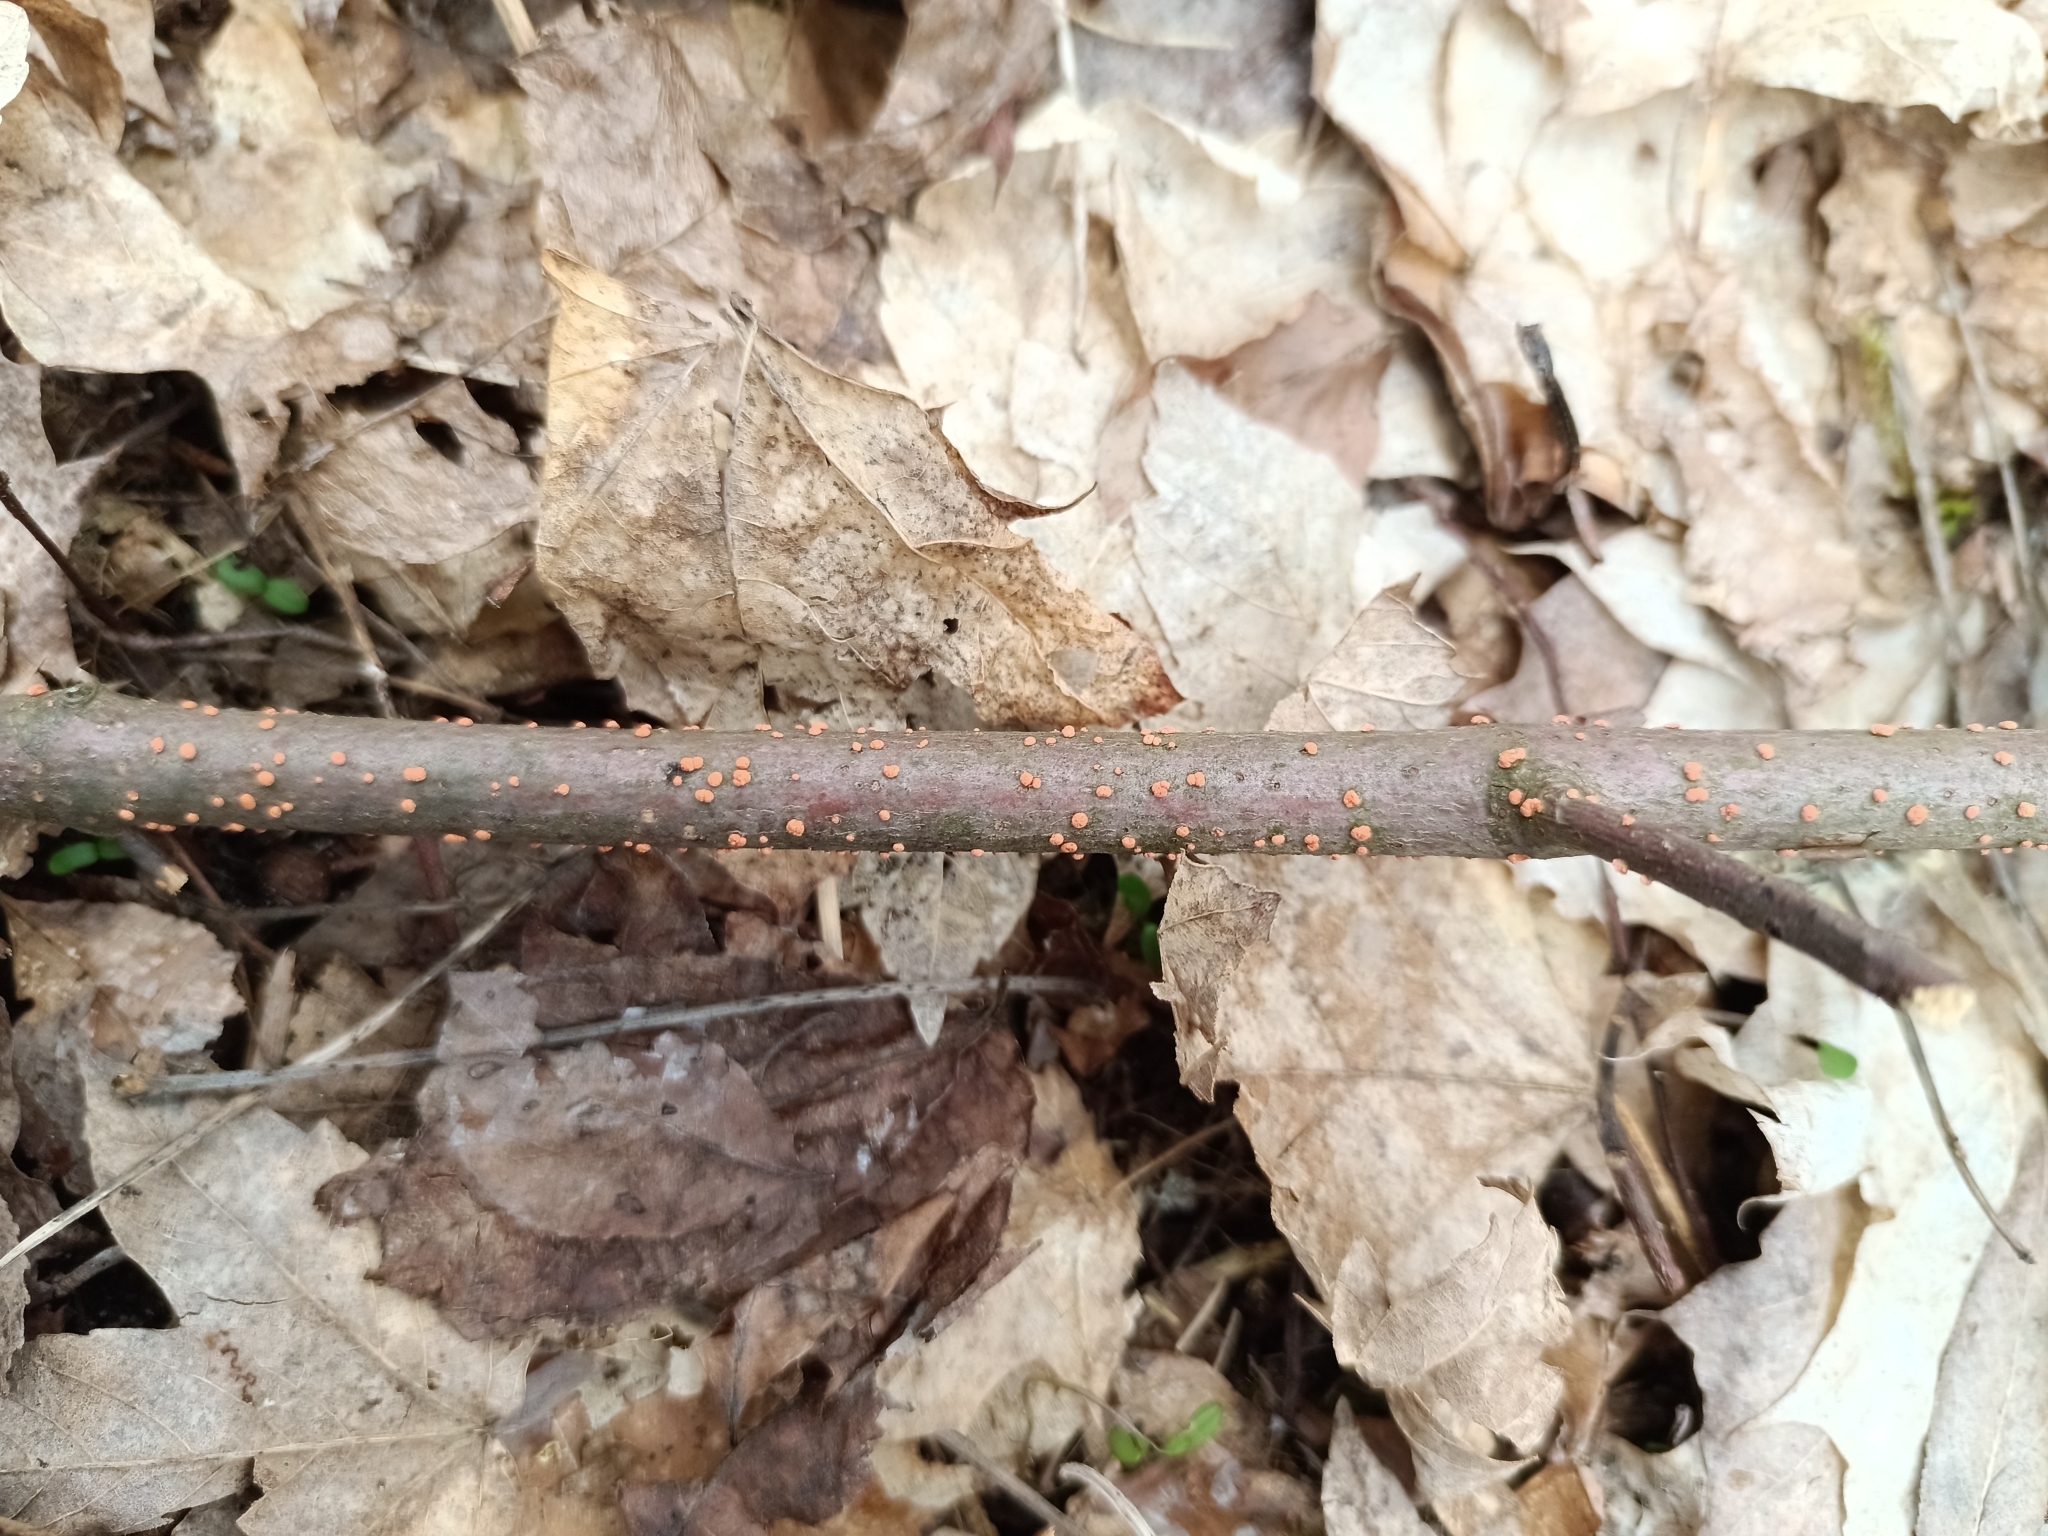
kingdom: Fungi
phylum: Ascomycota
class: Sordariomycetes
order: Hypocreales
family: Nectriaceae
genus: Nectria
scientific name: Nectria cinnabarina
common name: Coral spot
